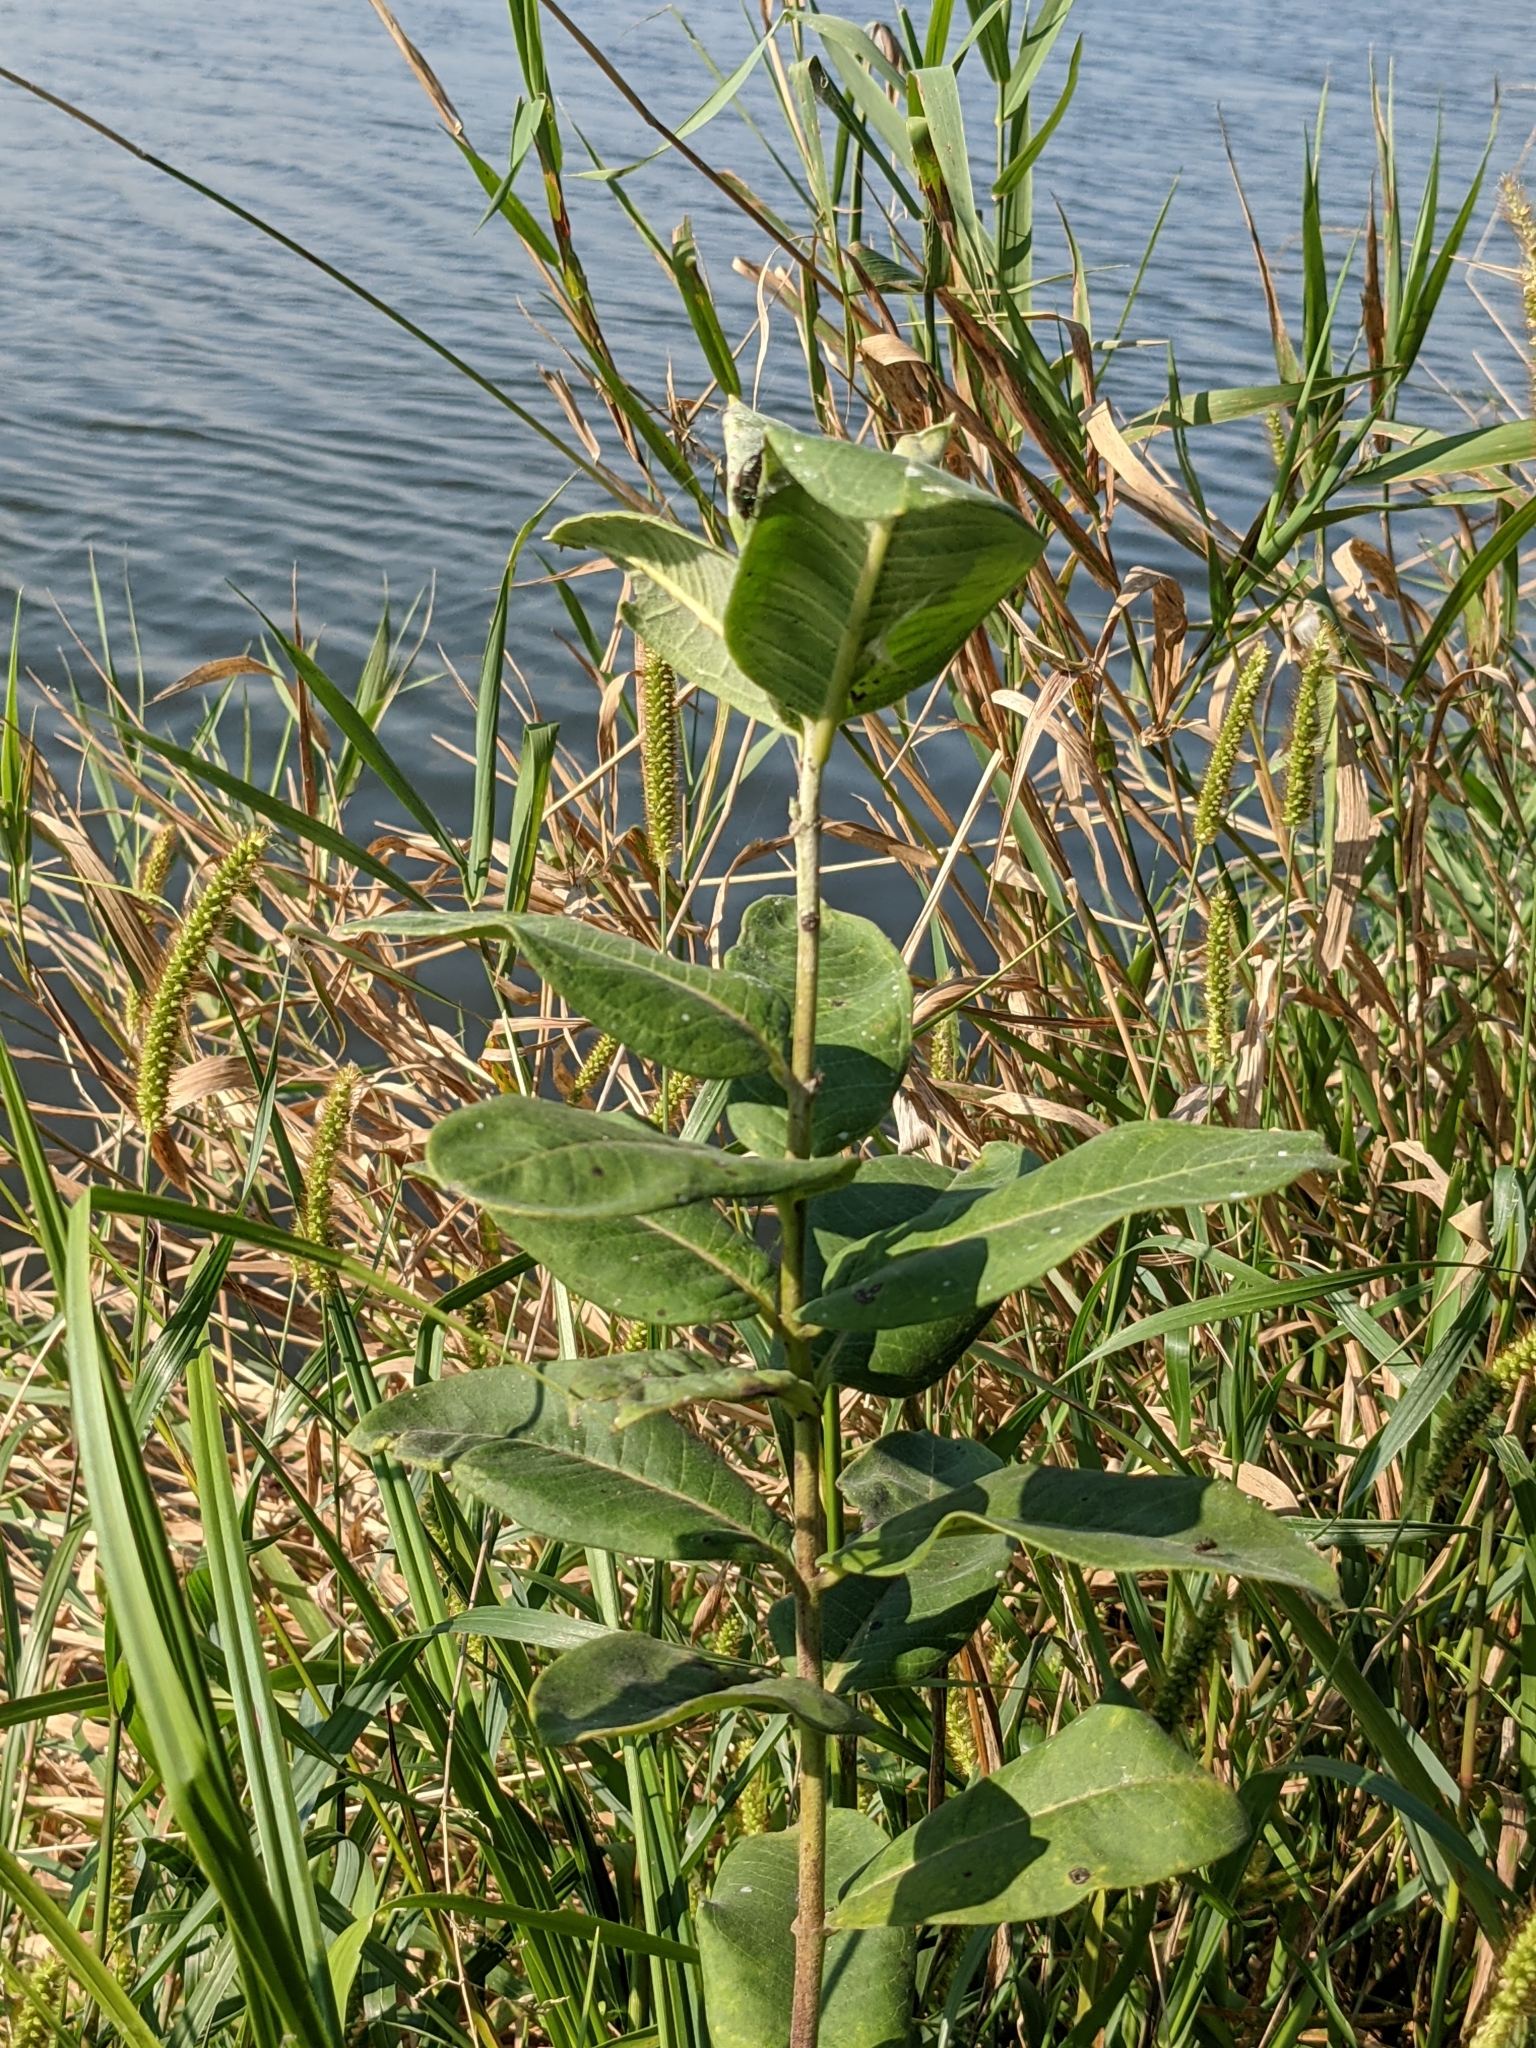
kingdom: Plantae
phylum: Tracheophyta
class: Magnoliopsida
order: Gentianales
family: Apocynaceae
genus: Asclepias
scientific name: Asclepias syriaca
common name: Common milkweed
